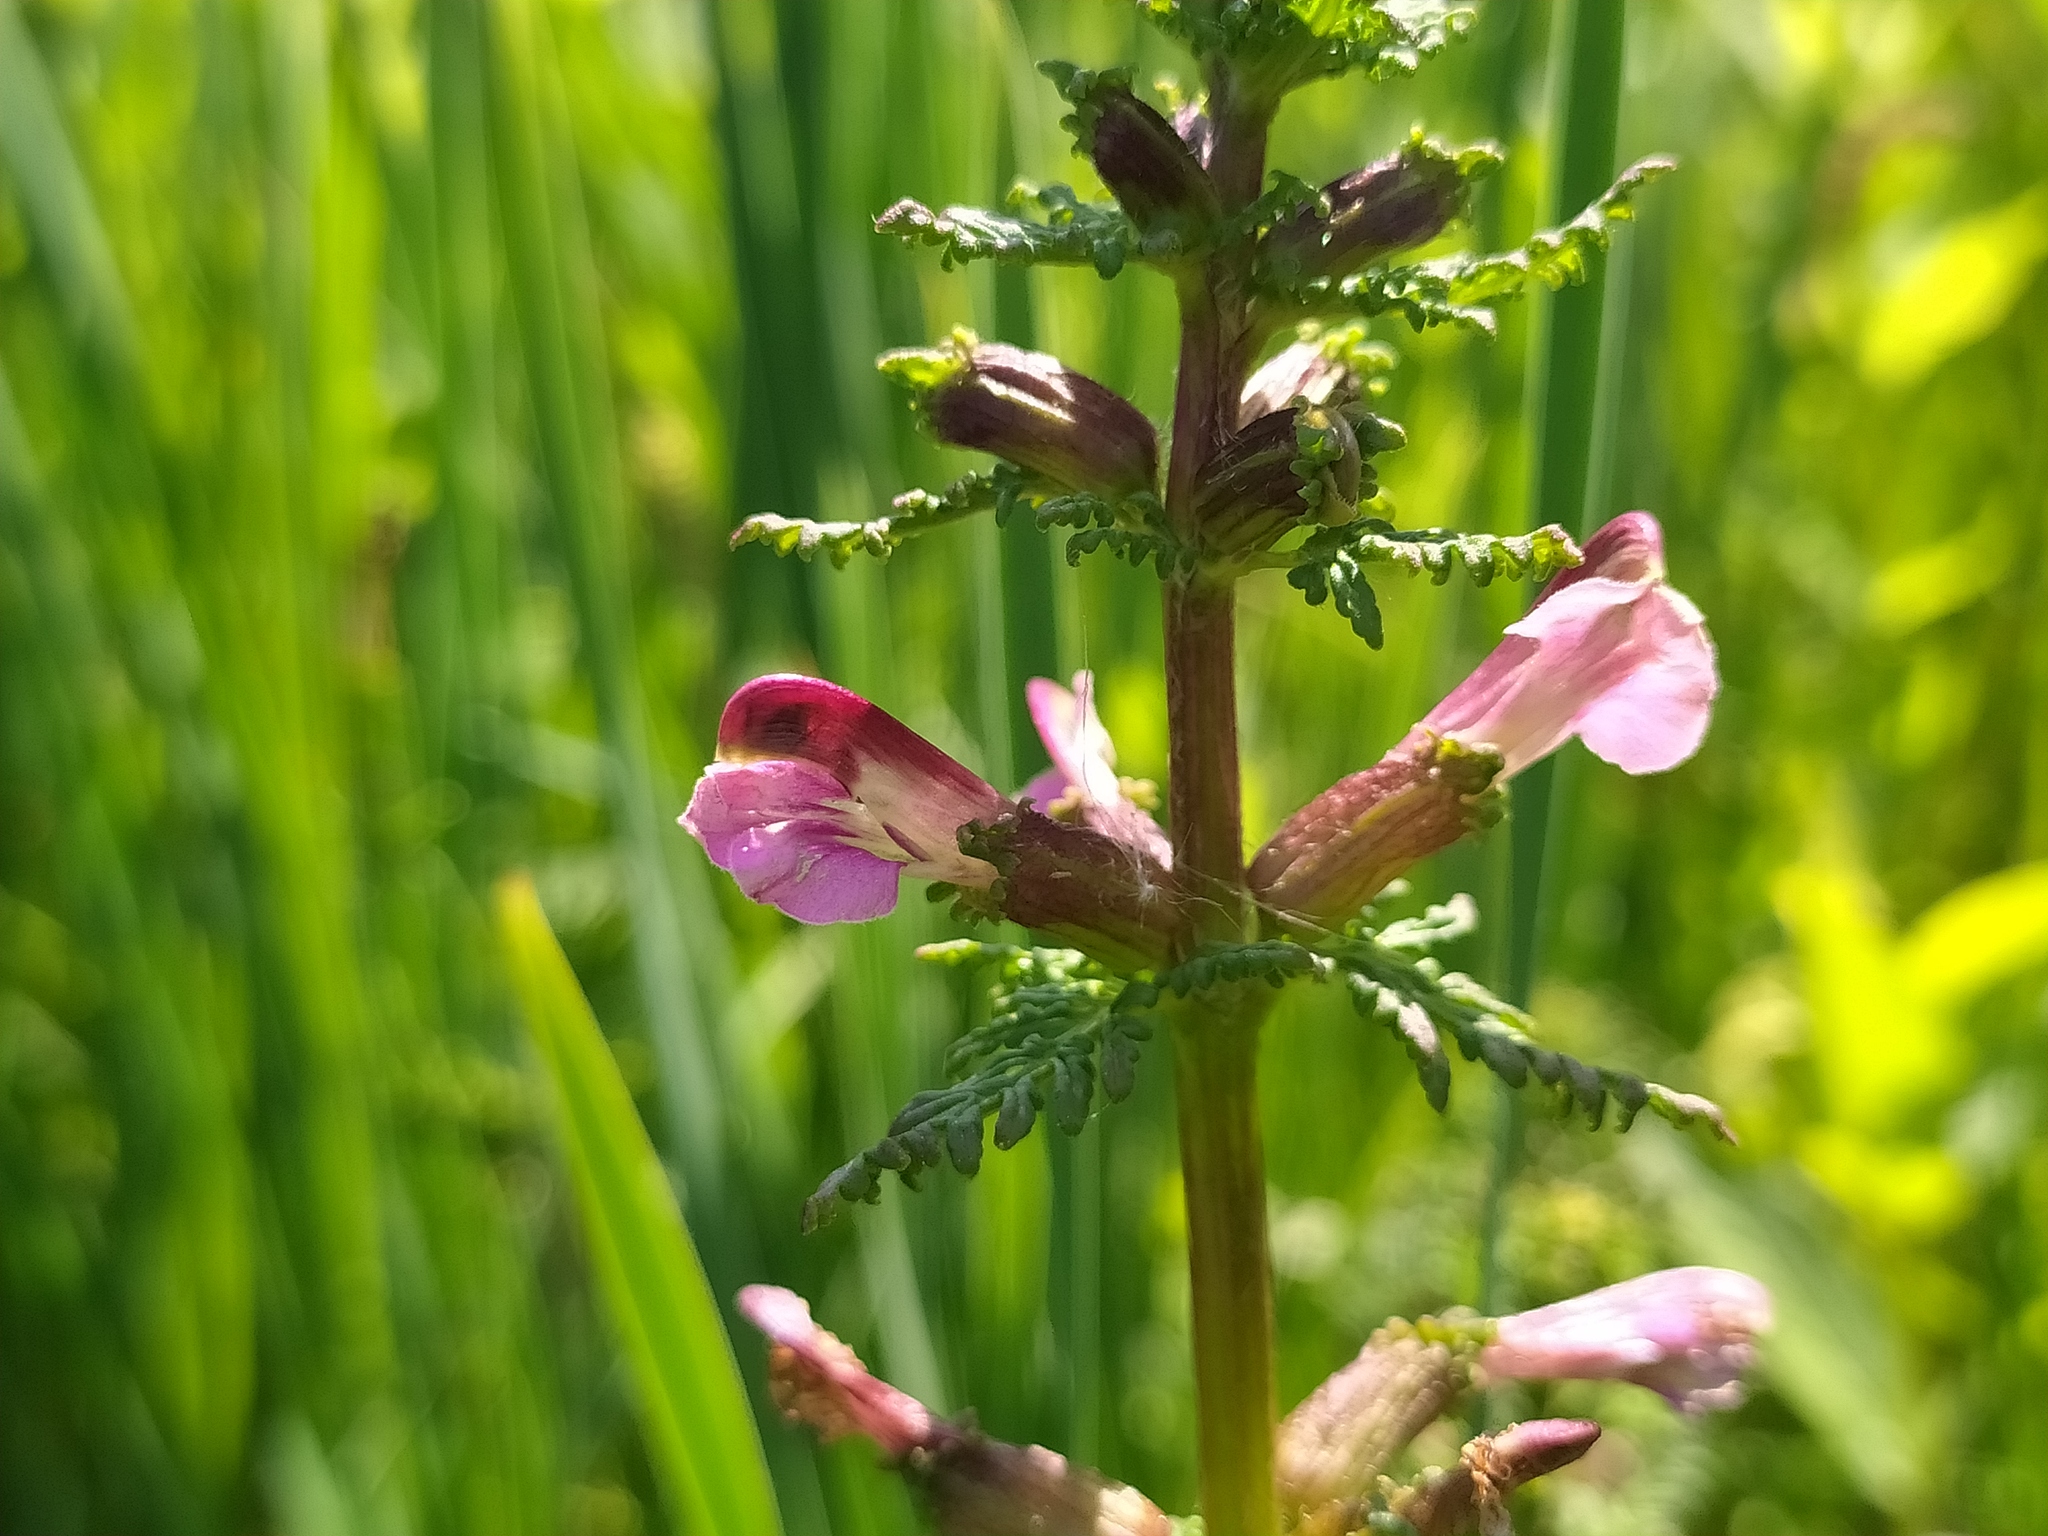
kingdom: Plantae
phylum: Tracheophyta
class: Magnoliopsida
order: Lamiales
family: Orobanchaceae
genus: Pedicularis
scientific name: Pedicularis palustris
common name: Marsh lousewort
